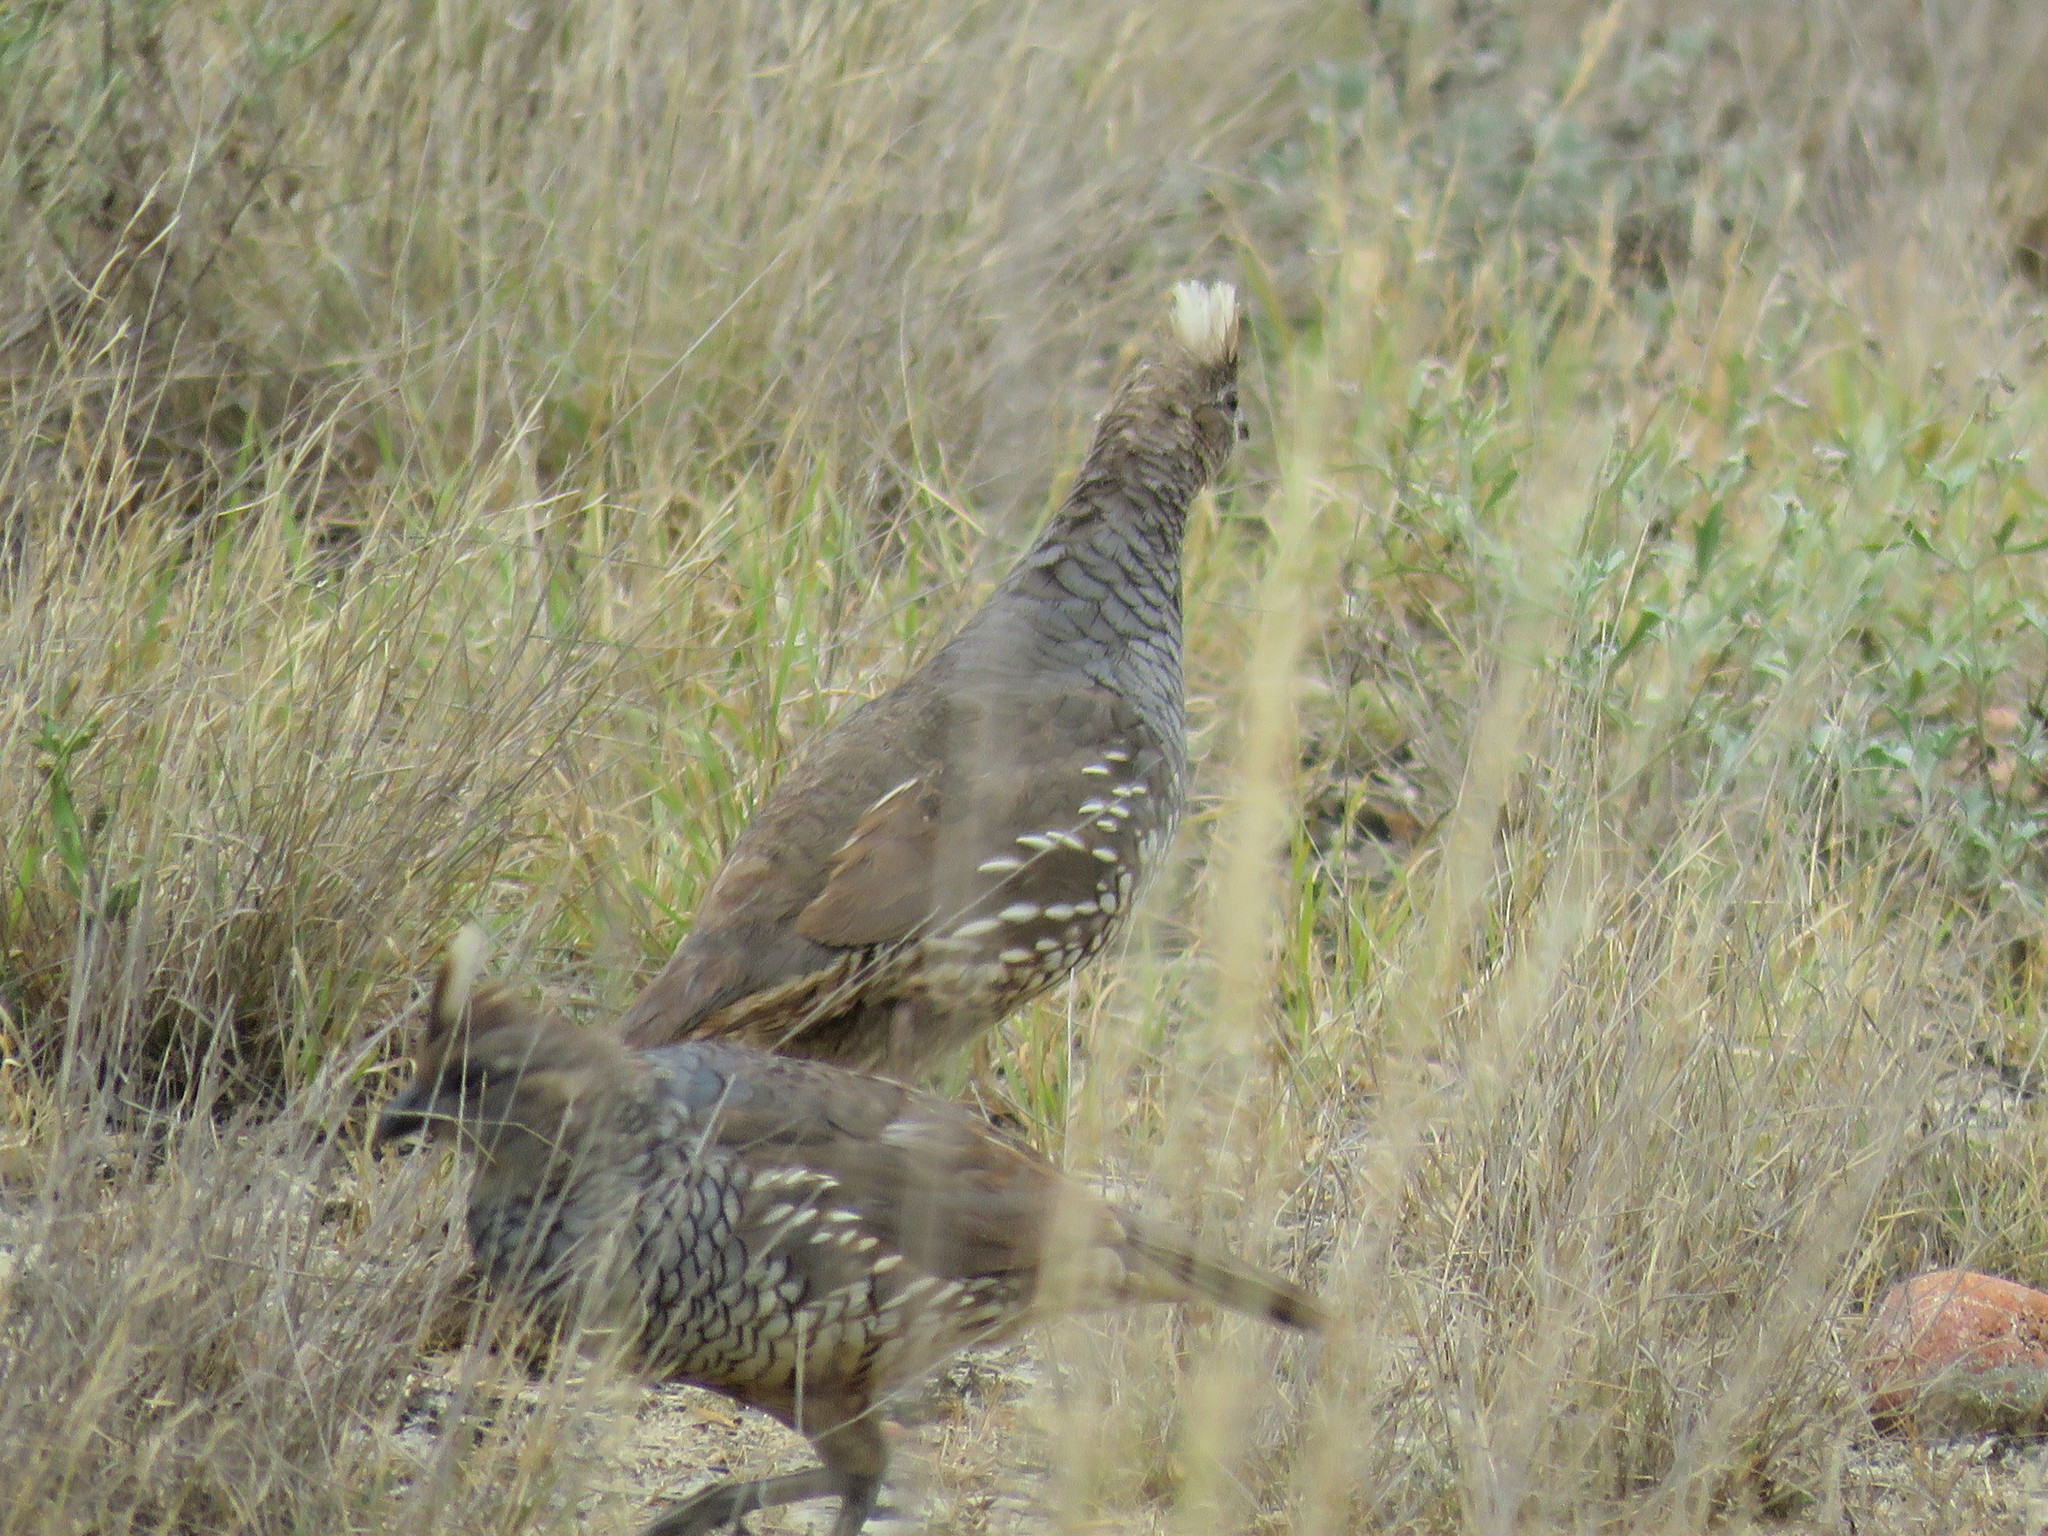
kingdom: Animalia
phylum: Chordata
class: Aves
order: Galliformes
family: Odontophoridae
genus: Callipepla
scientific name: Callipepla squamata
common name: Scaled quail
